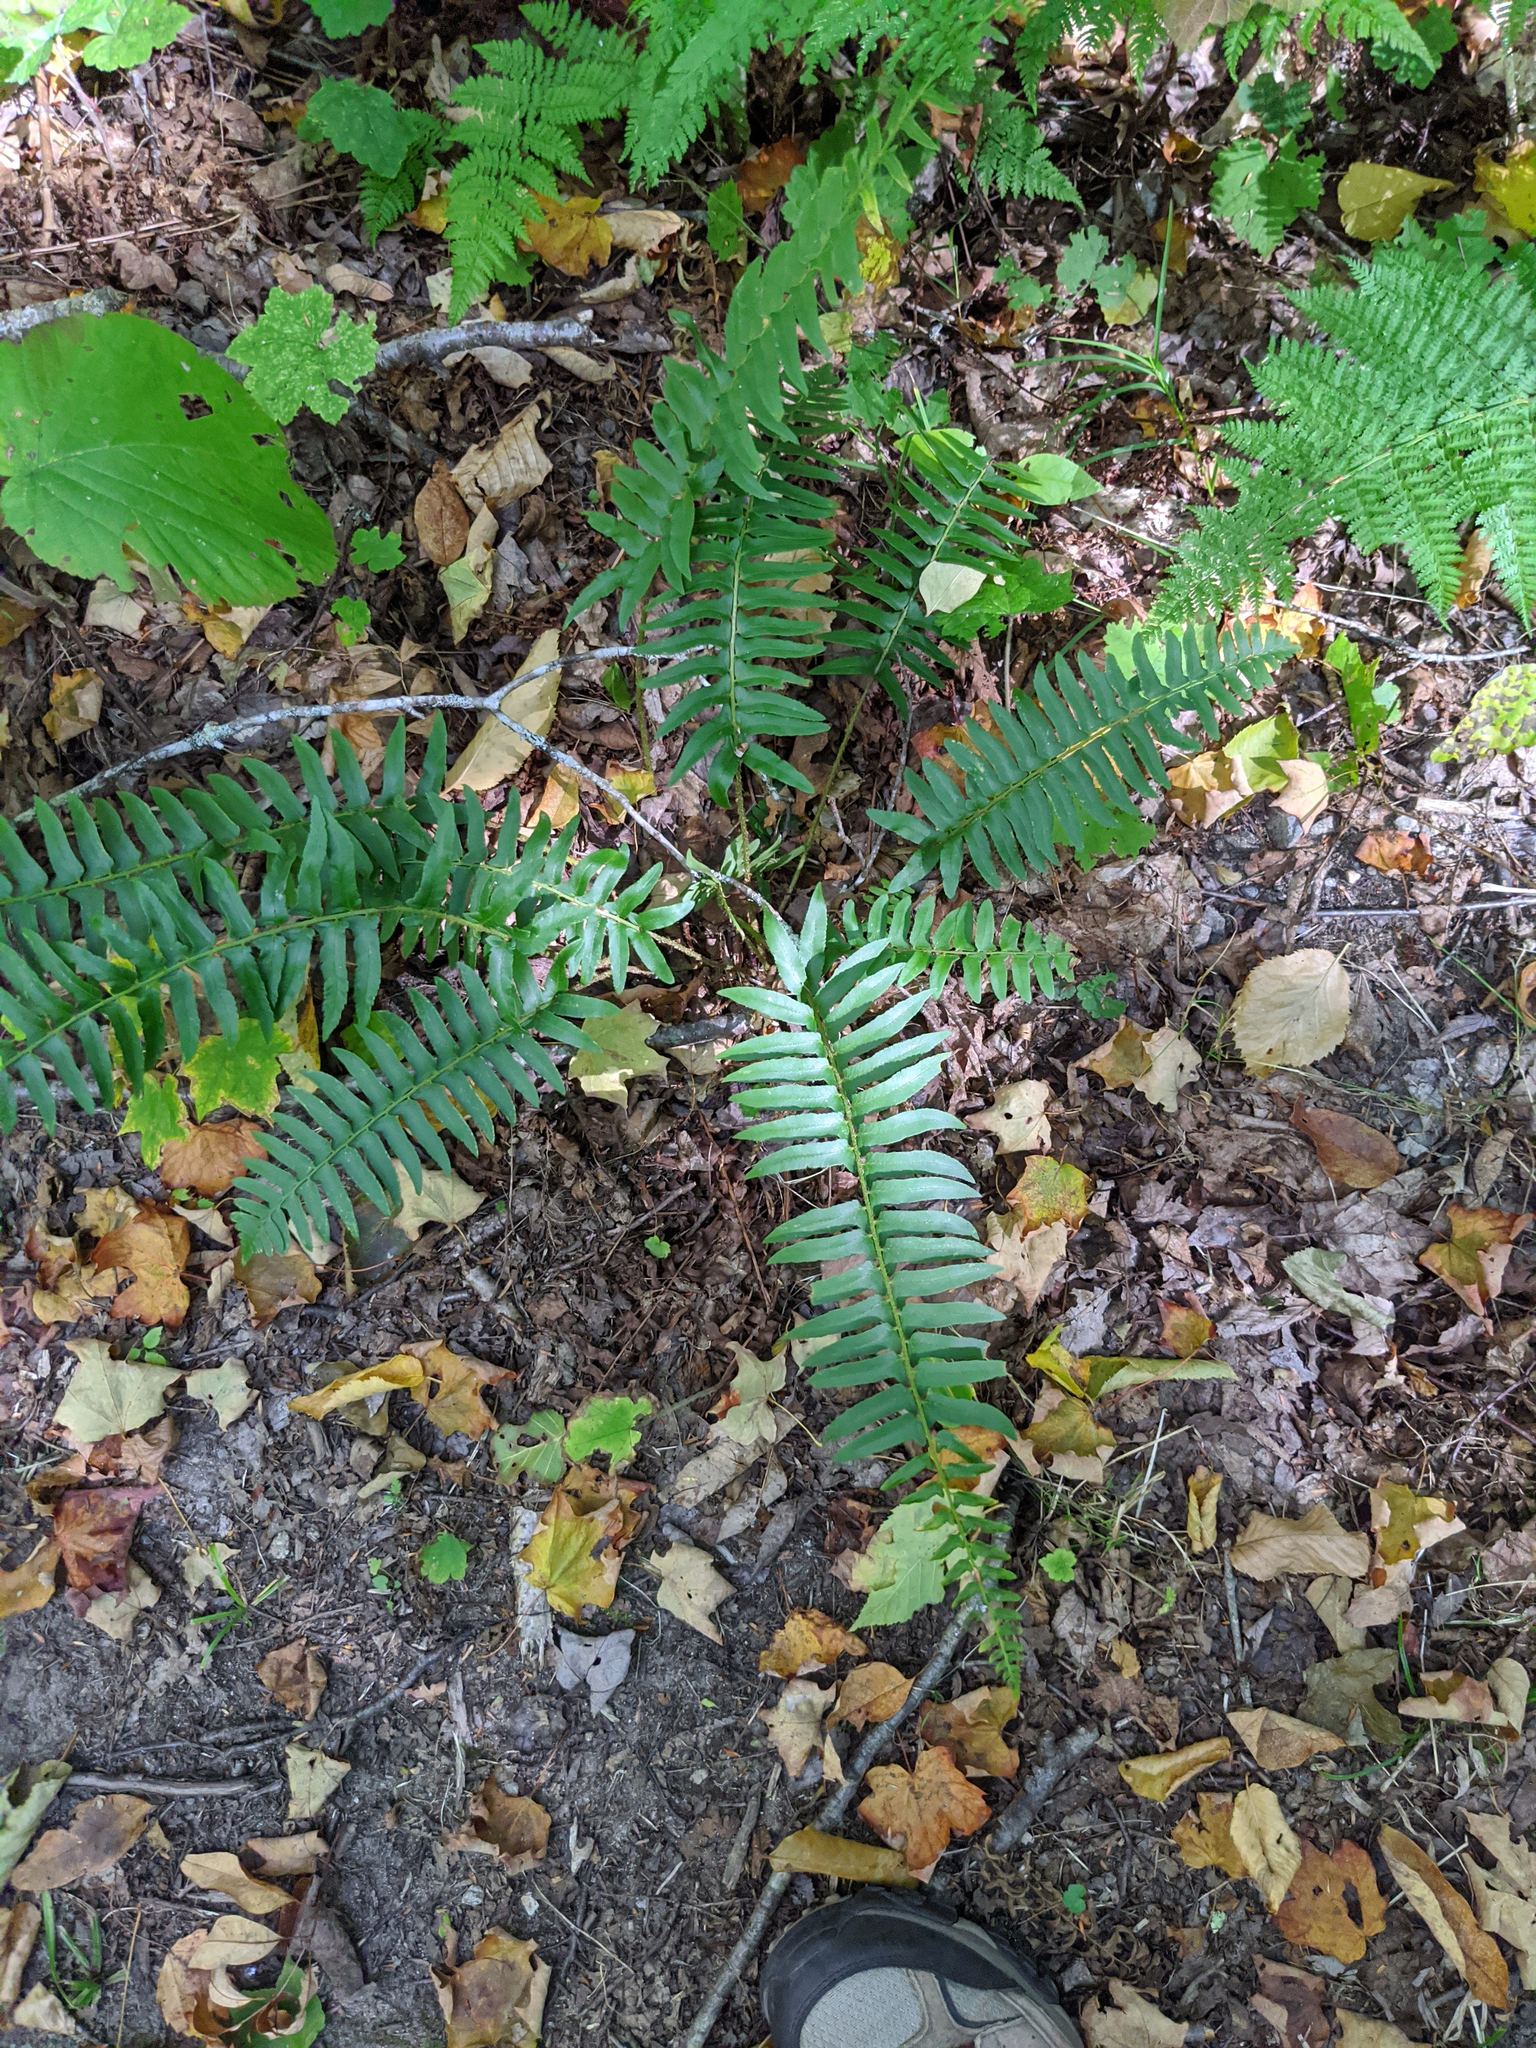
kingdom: Plantae
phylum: Tracheophyta
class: Polypodiopsida
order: Polypodiales
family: Dryopteridaceae
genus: Polystichum
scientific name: Polystichum acrostichoides
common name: Christmas fern
